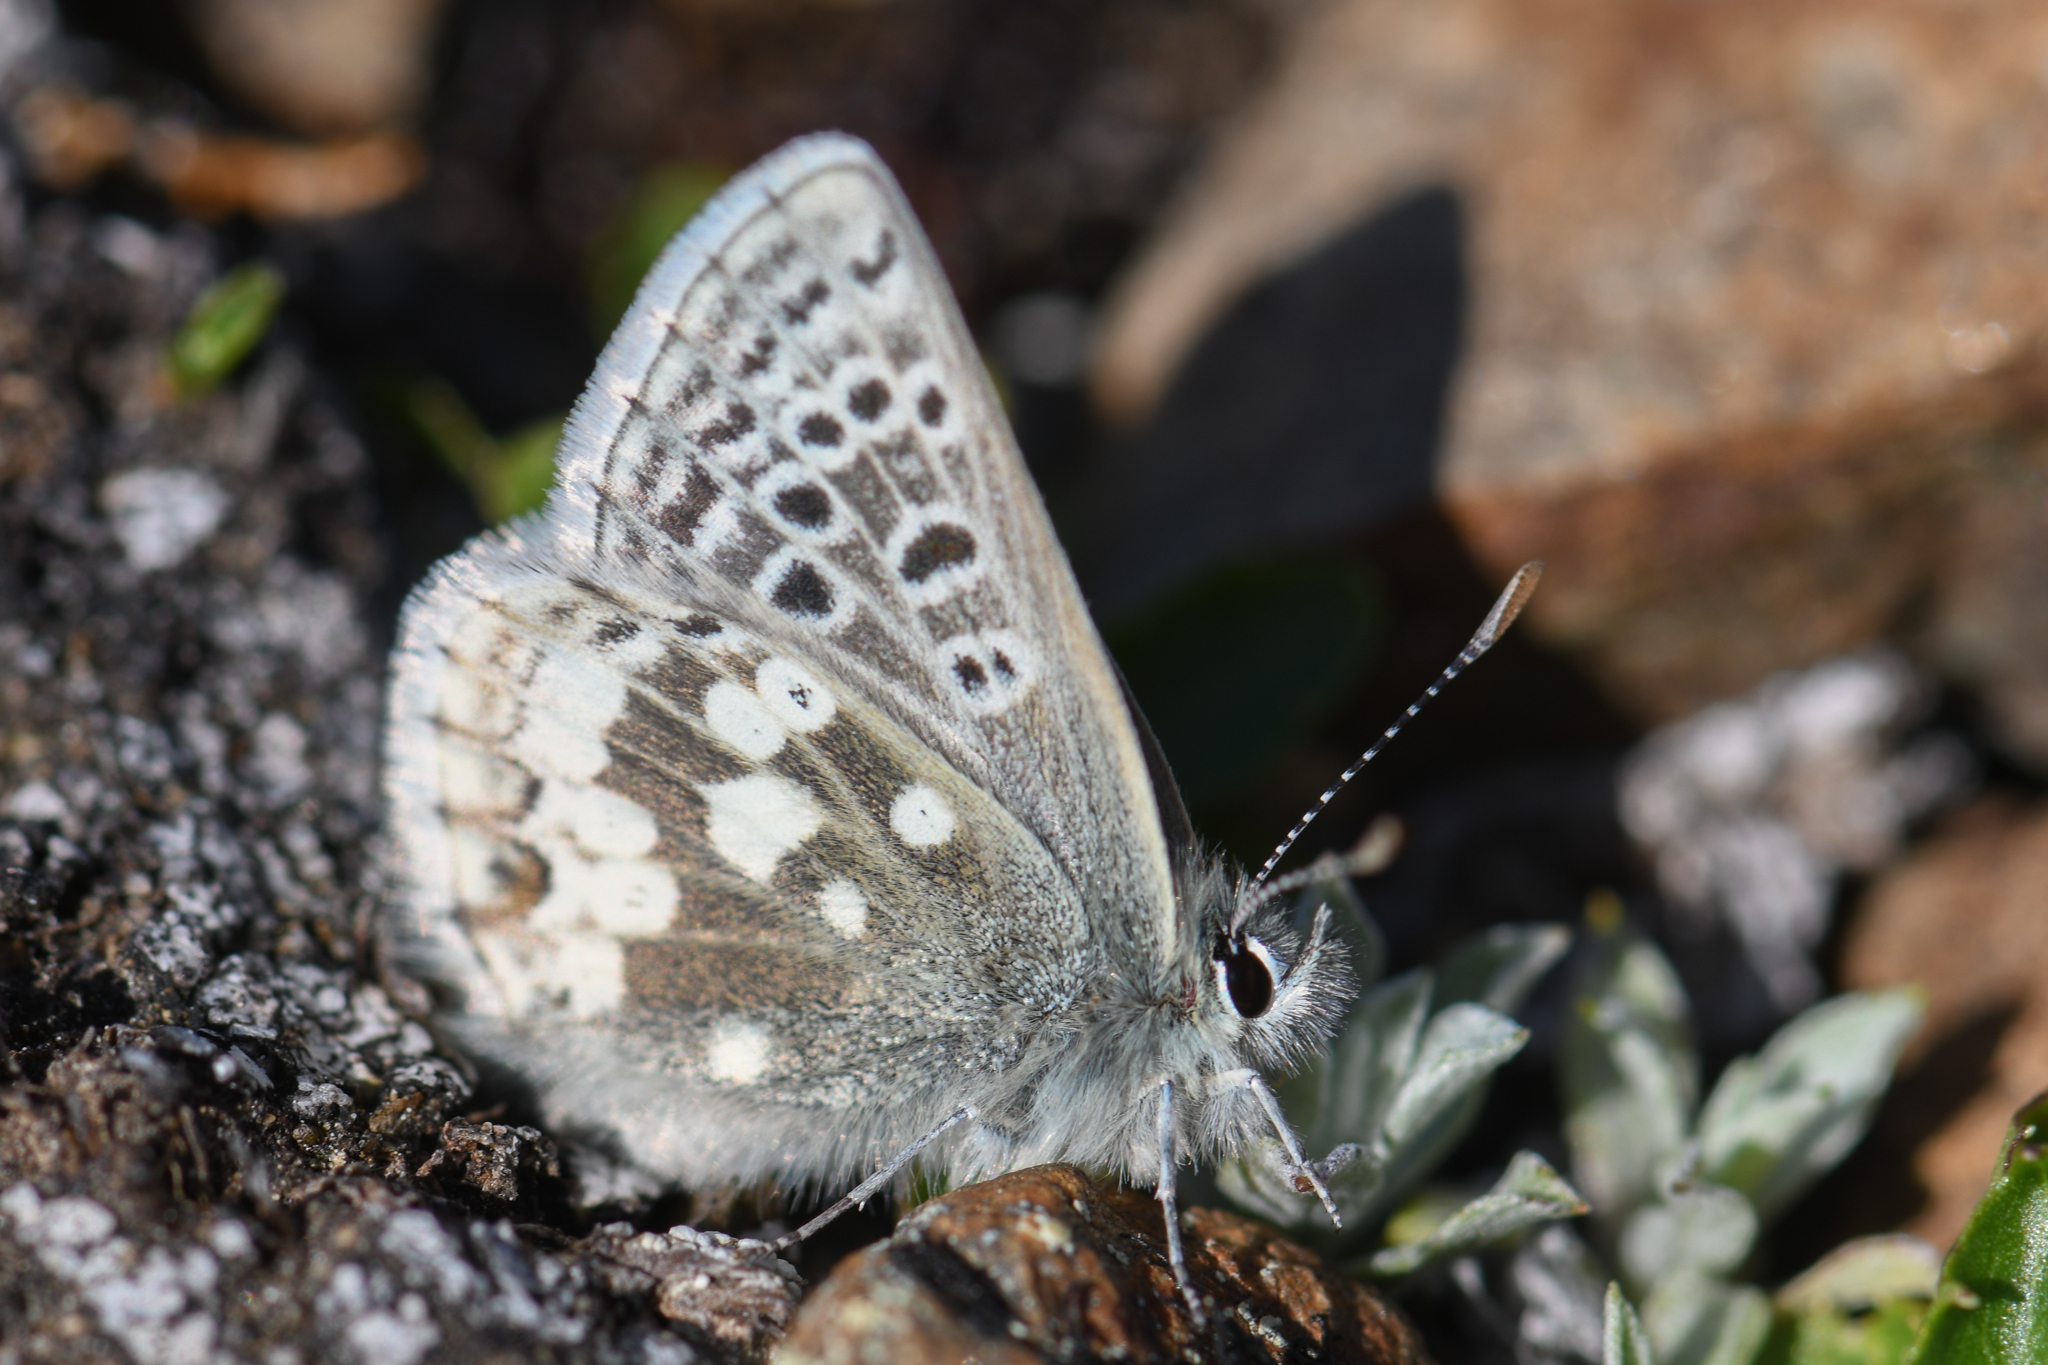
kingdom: Animalia
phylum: Arthropoda
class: Insecta
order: Lepidoptera
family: Lycaenidae
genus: Agriades
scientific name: Agriades glandon
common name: Glandon blue
